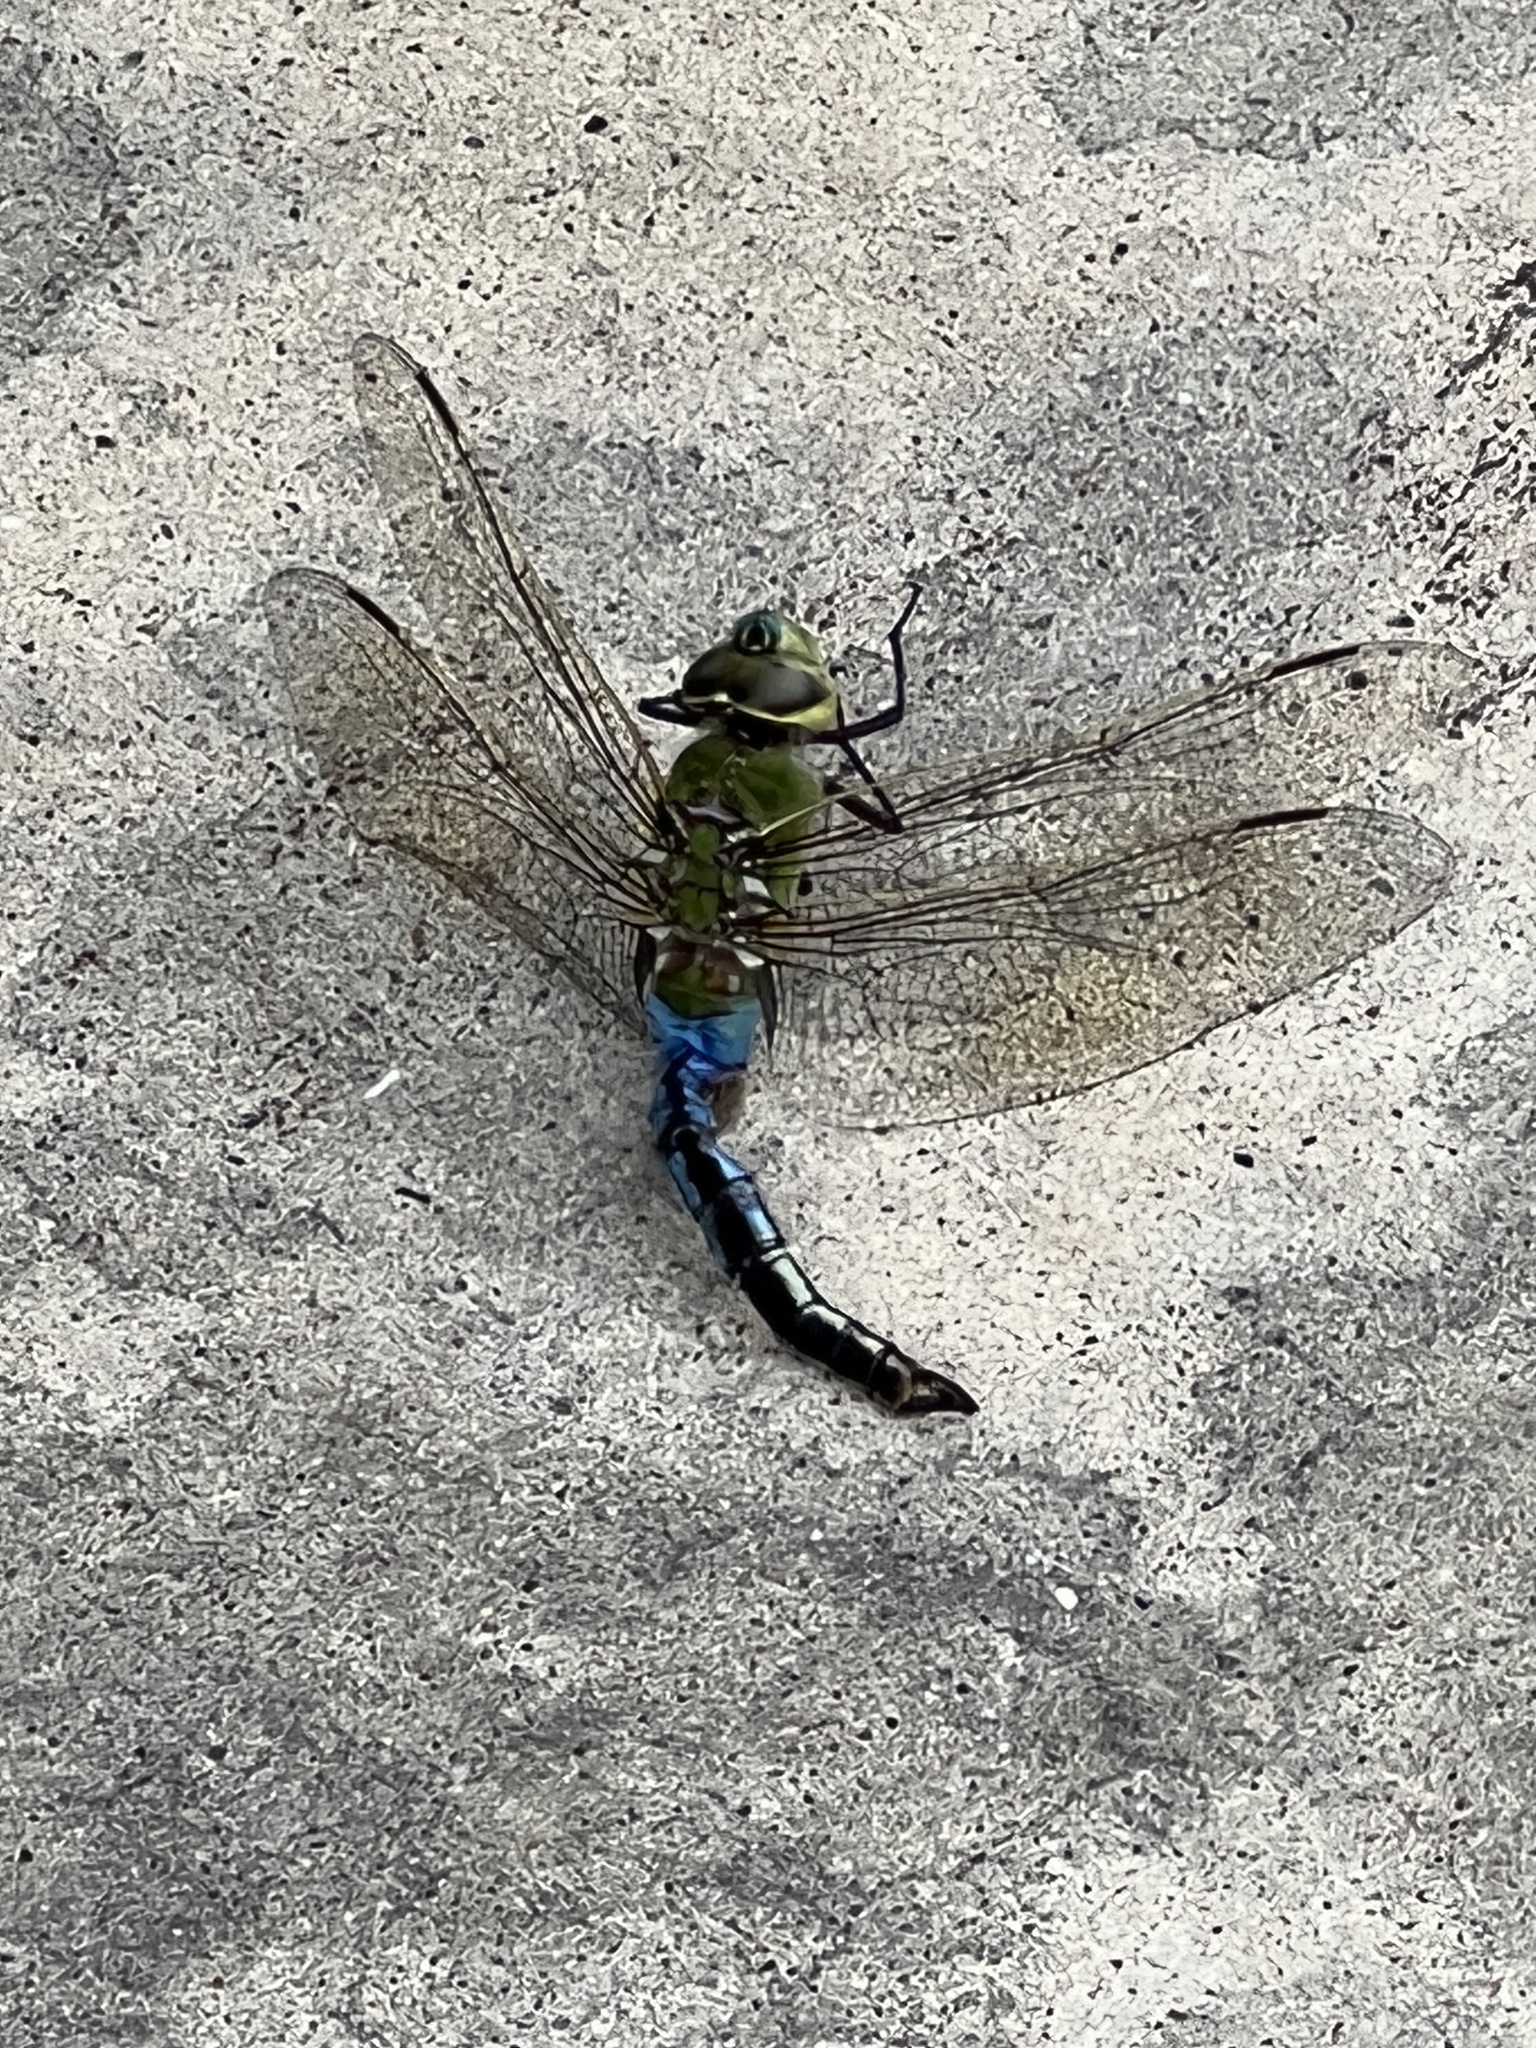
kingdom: Animalia
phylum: Arthropoda
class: Insecta
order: Odonata
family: Aeshnidae
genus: Anax
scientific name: Anax junius
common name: Common green darner
